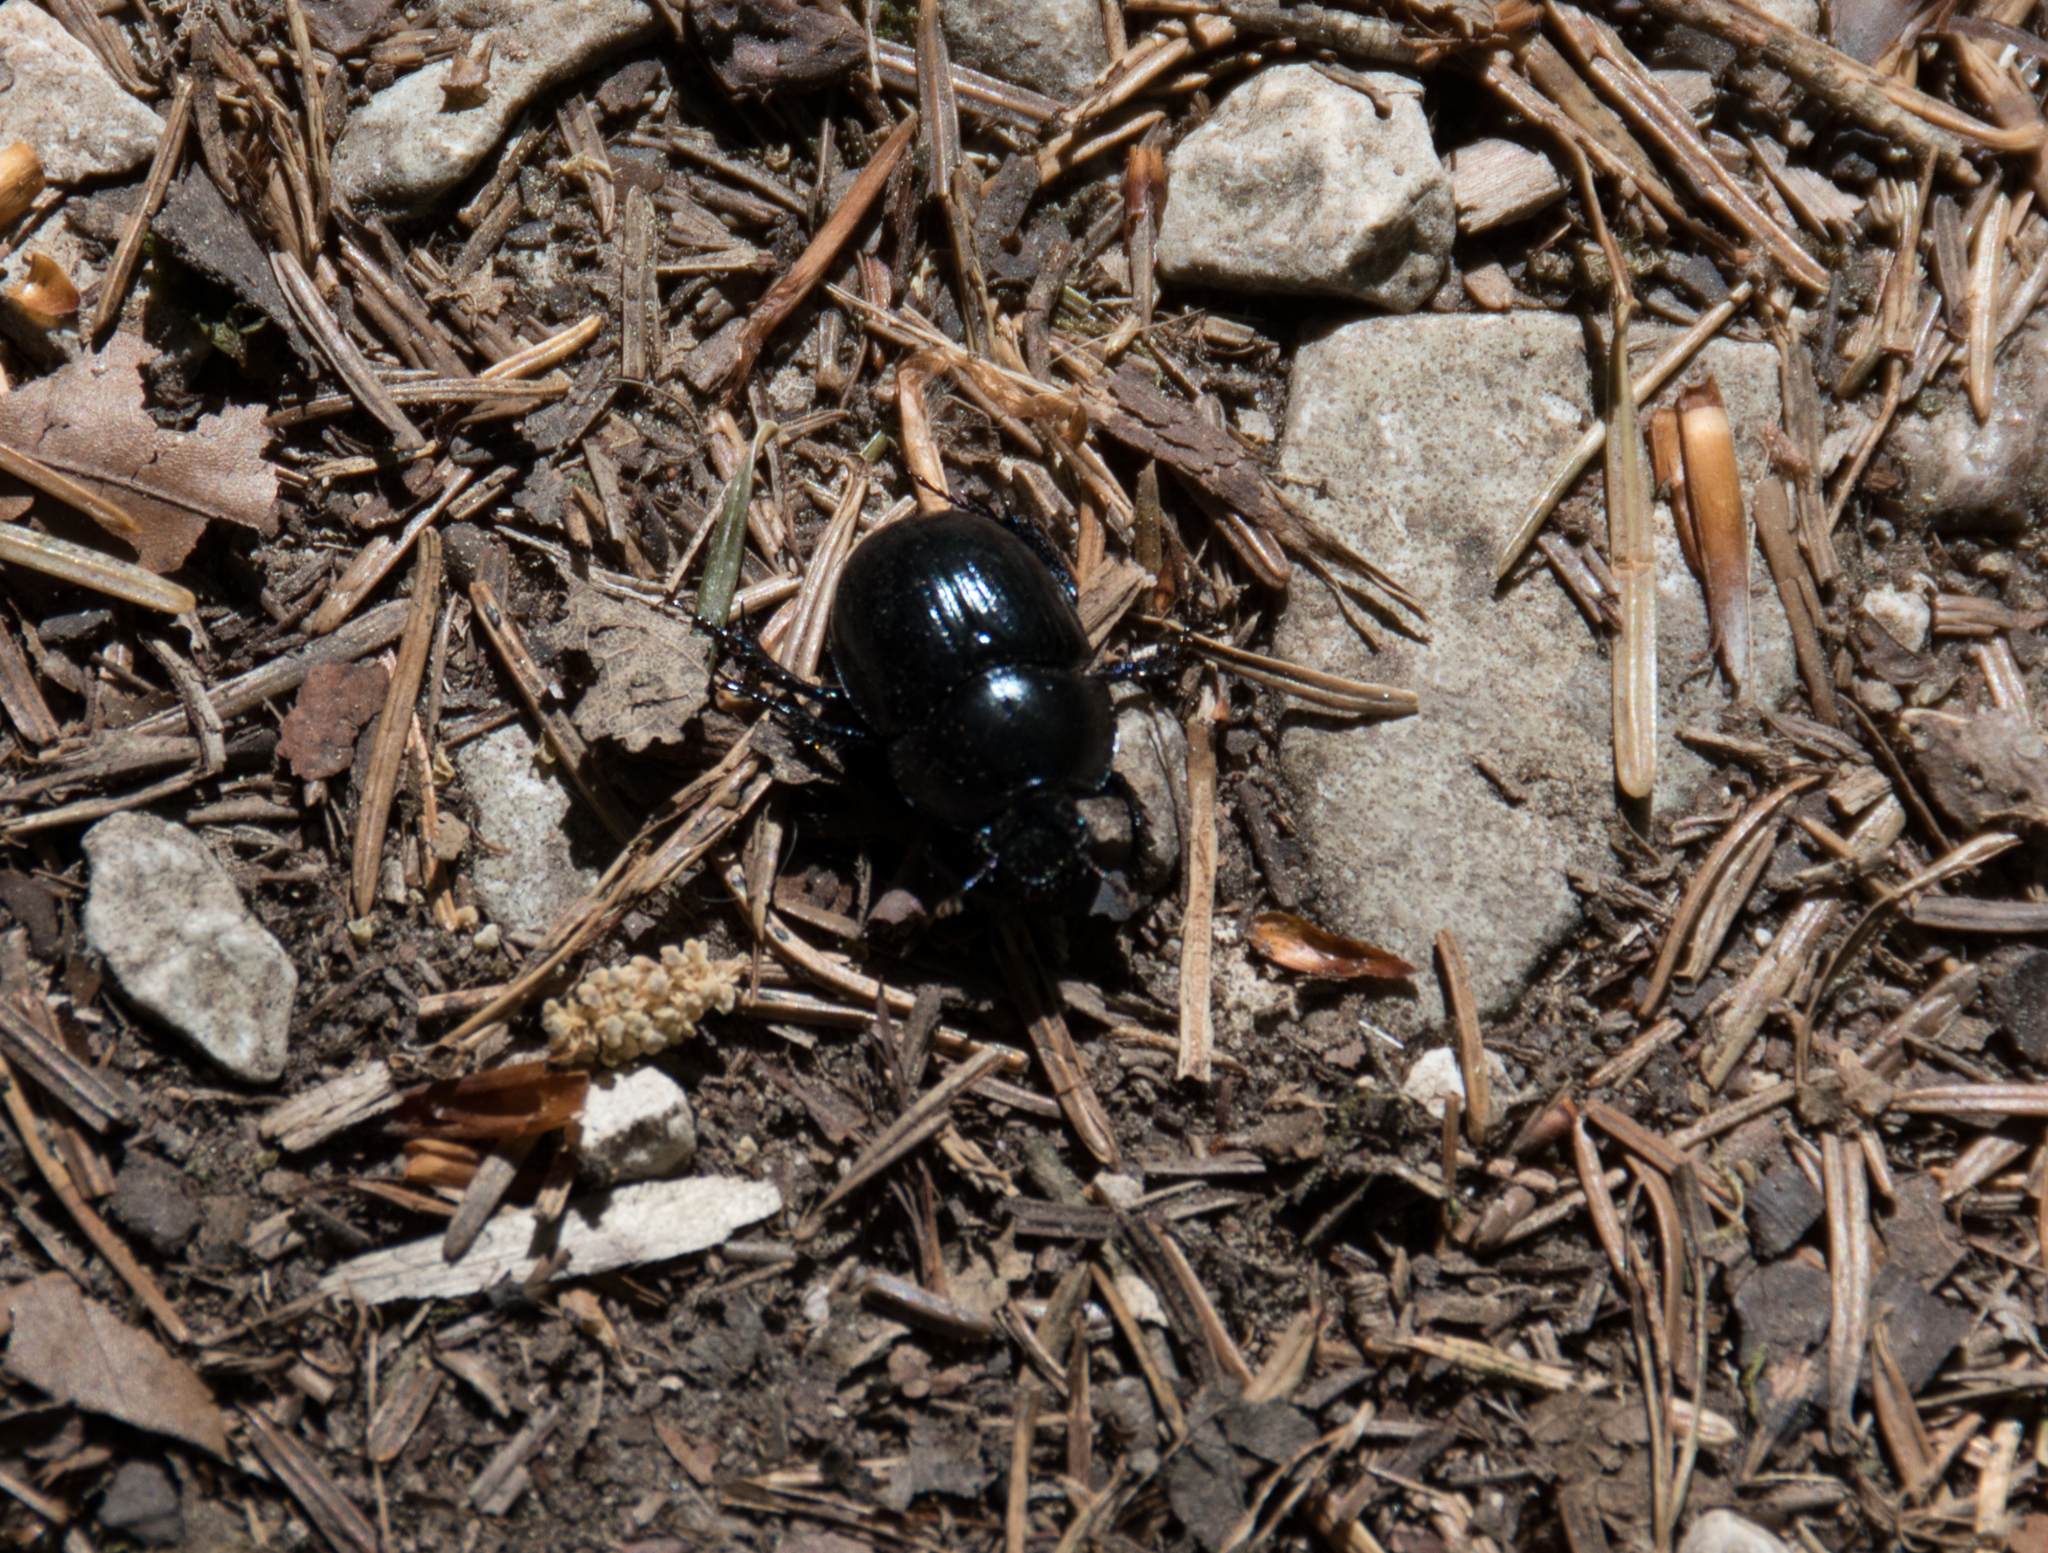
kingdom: Animalia
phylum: Arthropoda
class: Insecta
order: Coleoptera
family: Geotrupidae
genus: Anoplotrupes
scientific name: Anoplotrupes stercorosus
